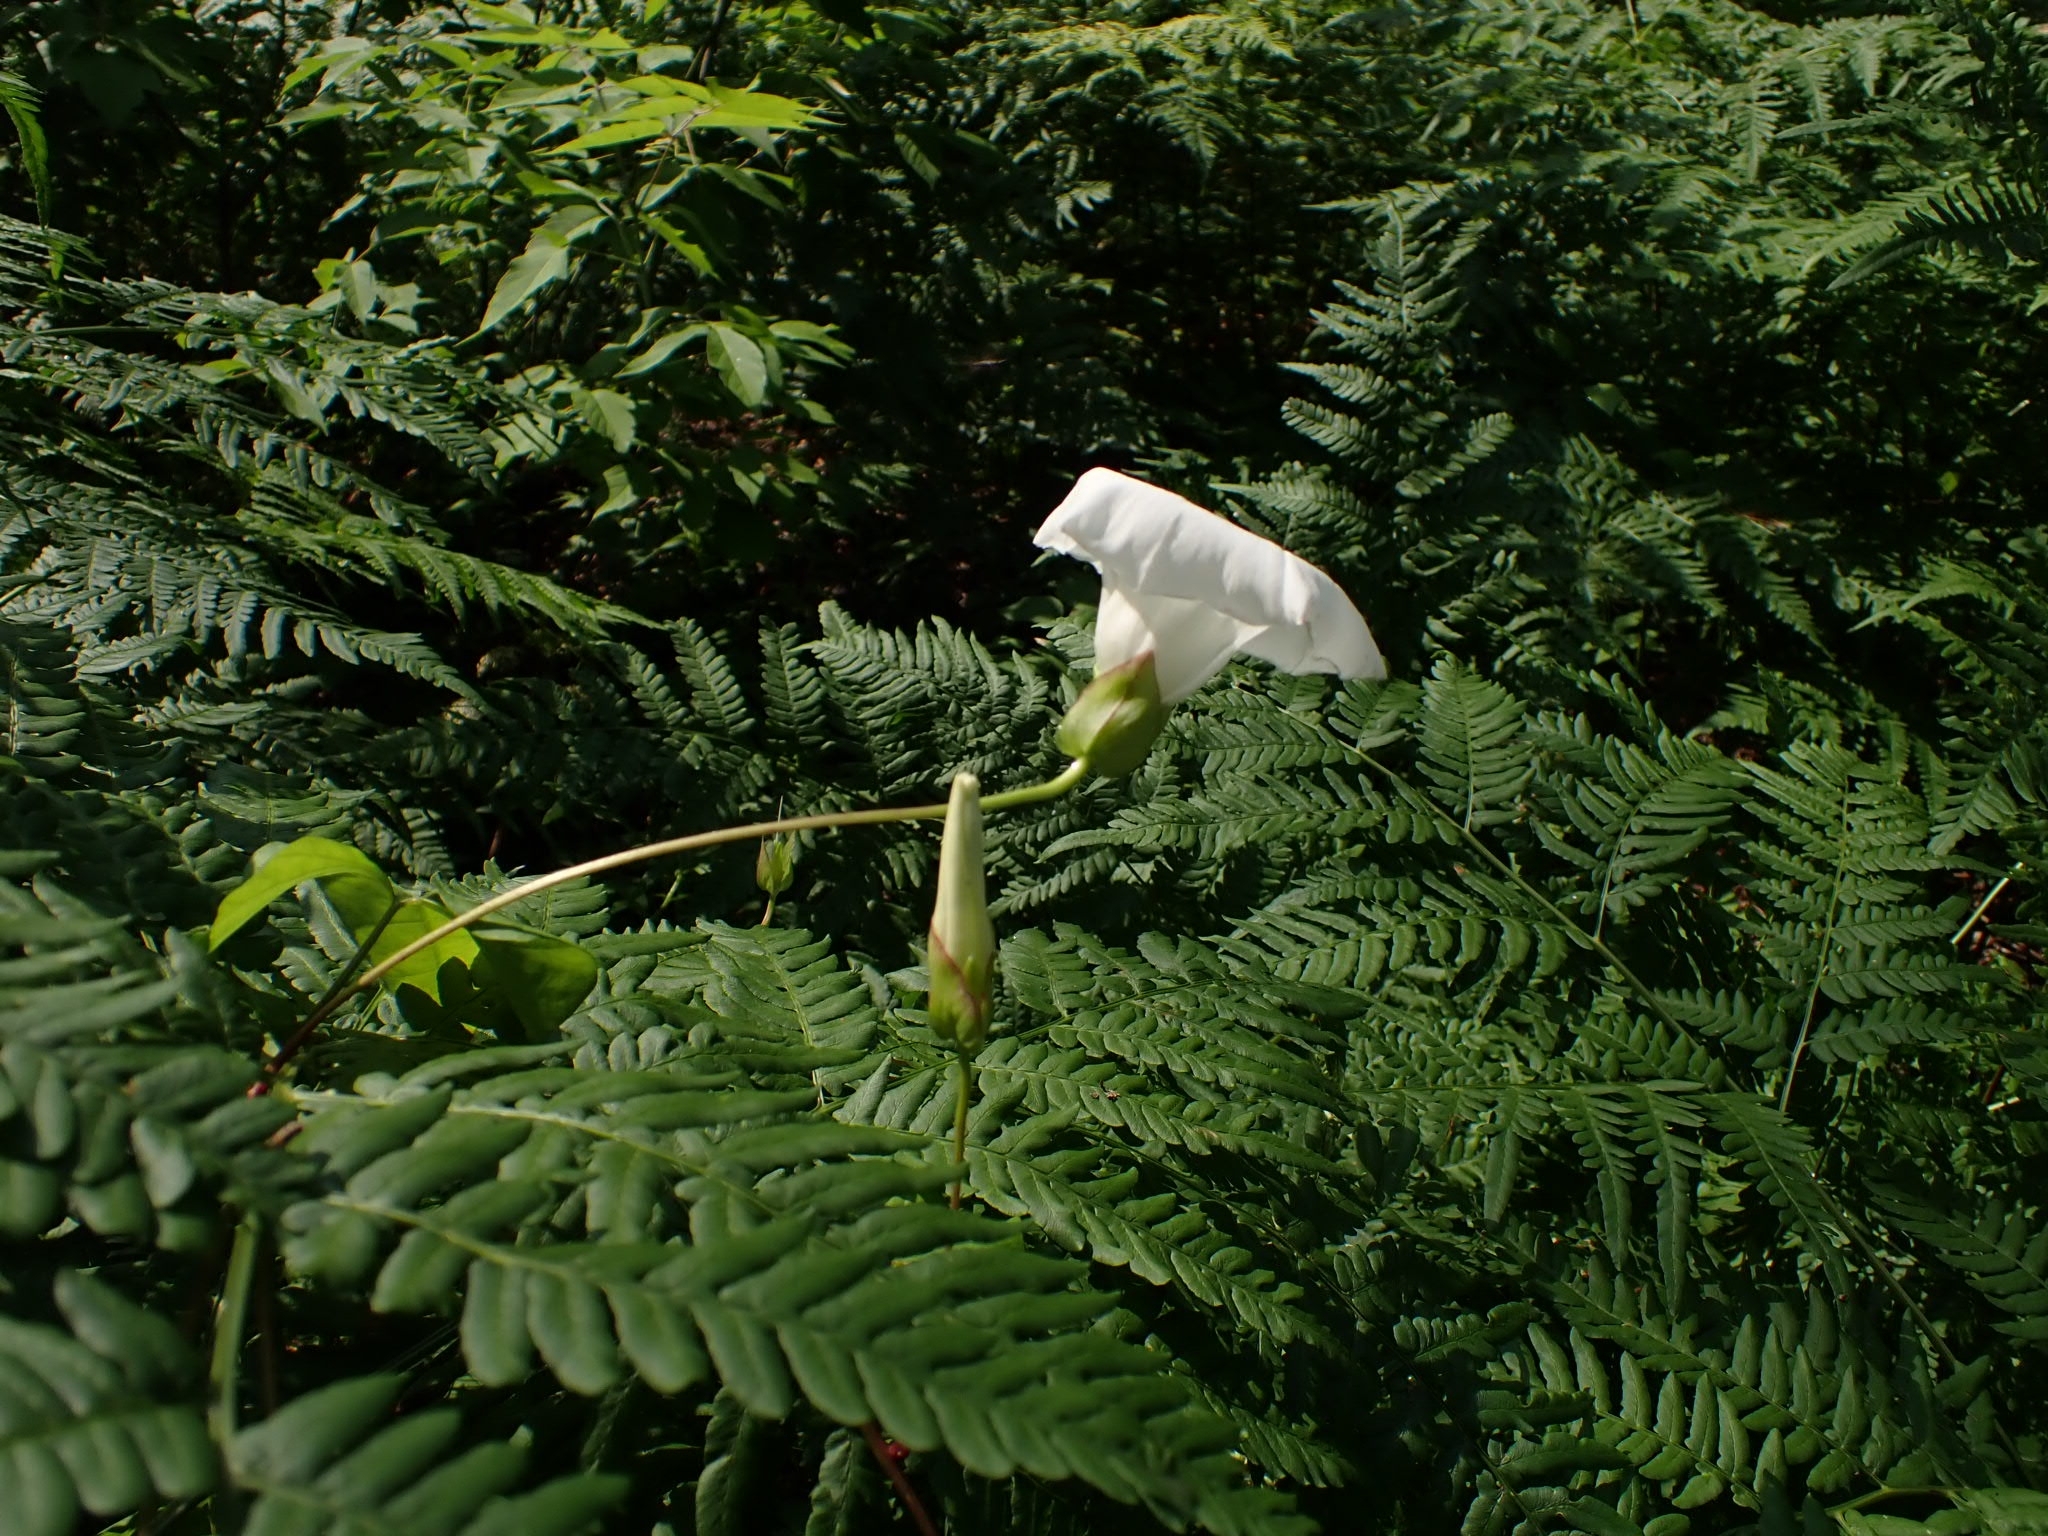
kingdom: Plantae
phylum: Tracheophyta
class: Magnoliopsida
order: Solanales
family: Convolvulaceae
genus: Calystegia
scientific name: Calystegia sepium
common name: Hedge bindweed
